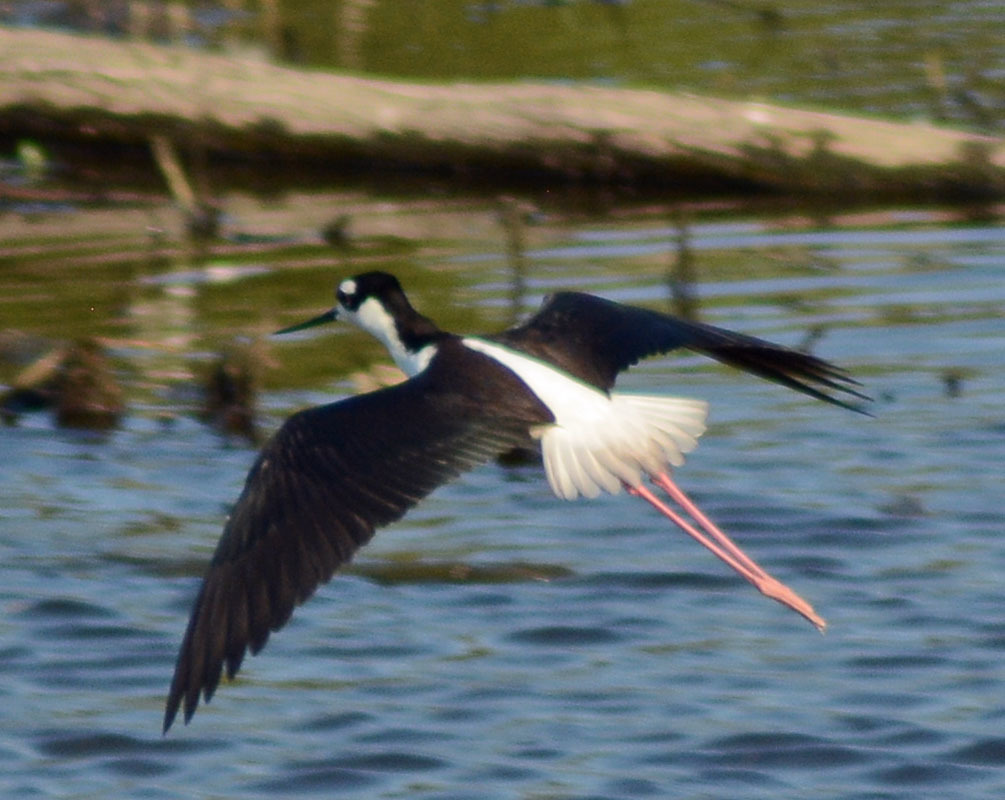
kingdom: Animalia
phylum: Chordata
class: Aves
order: Charadriiformes
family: Recurvirostridae
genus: Himantopus
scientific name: Himantopus mexicanus
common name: Black-necked stilt
